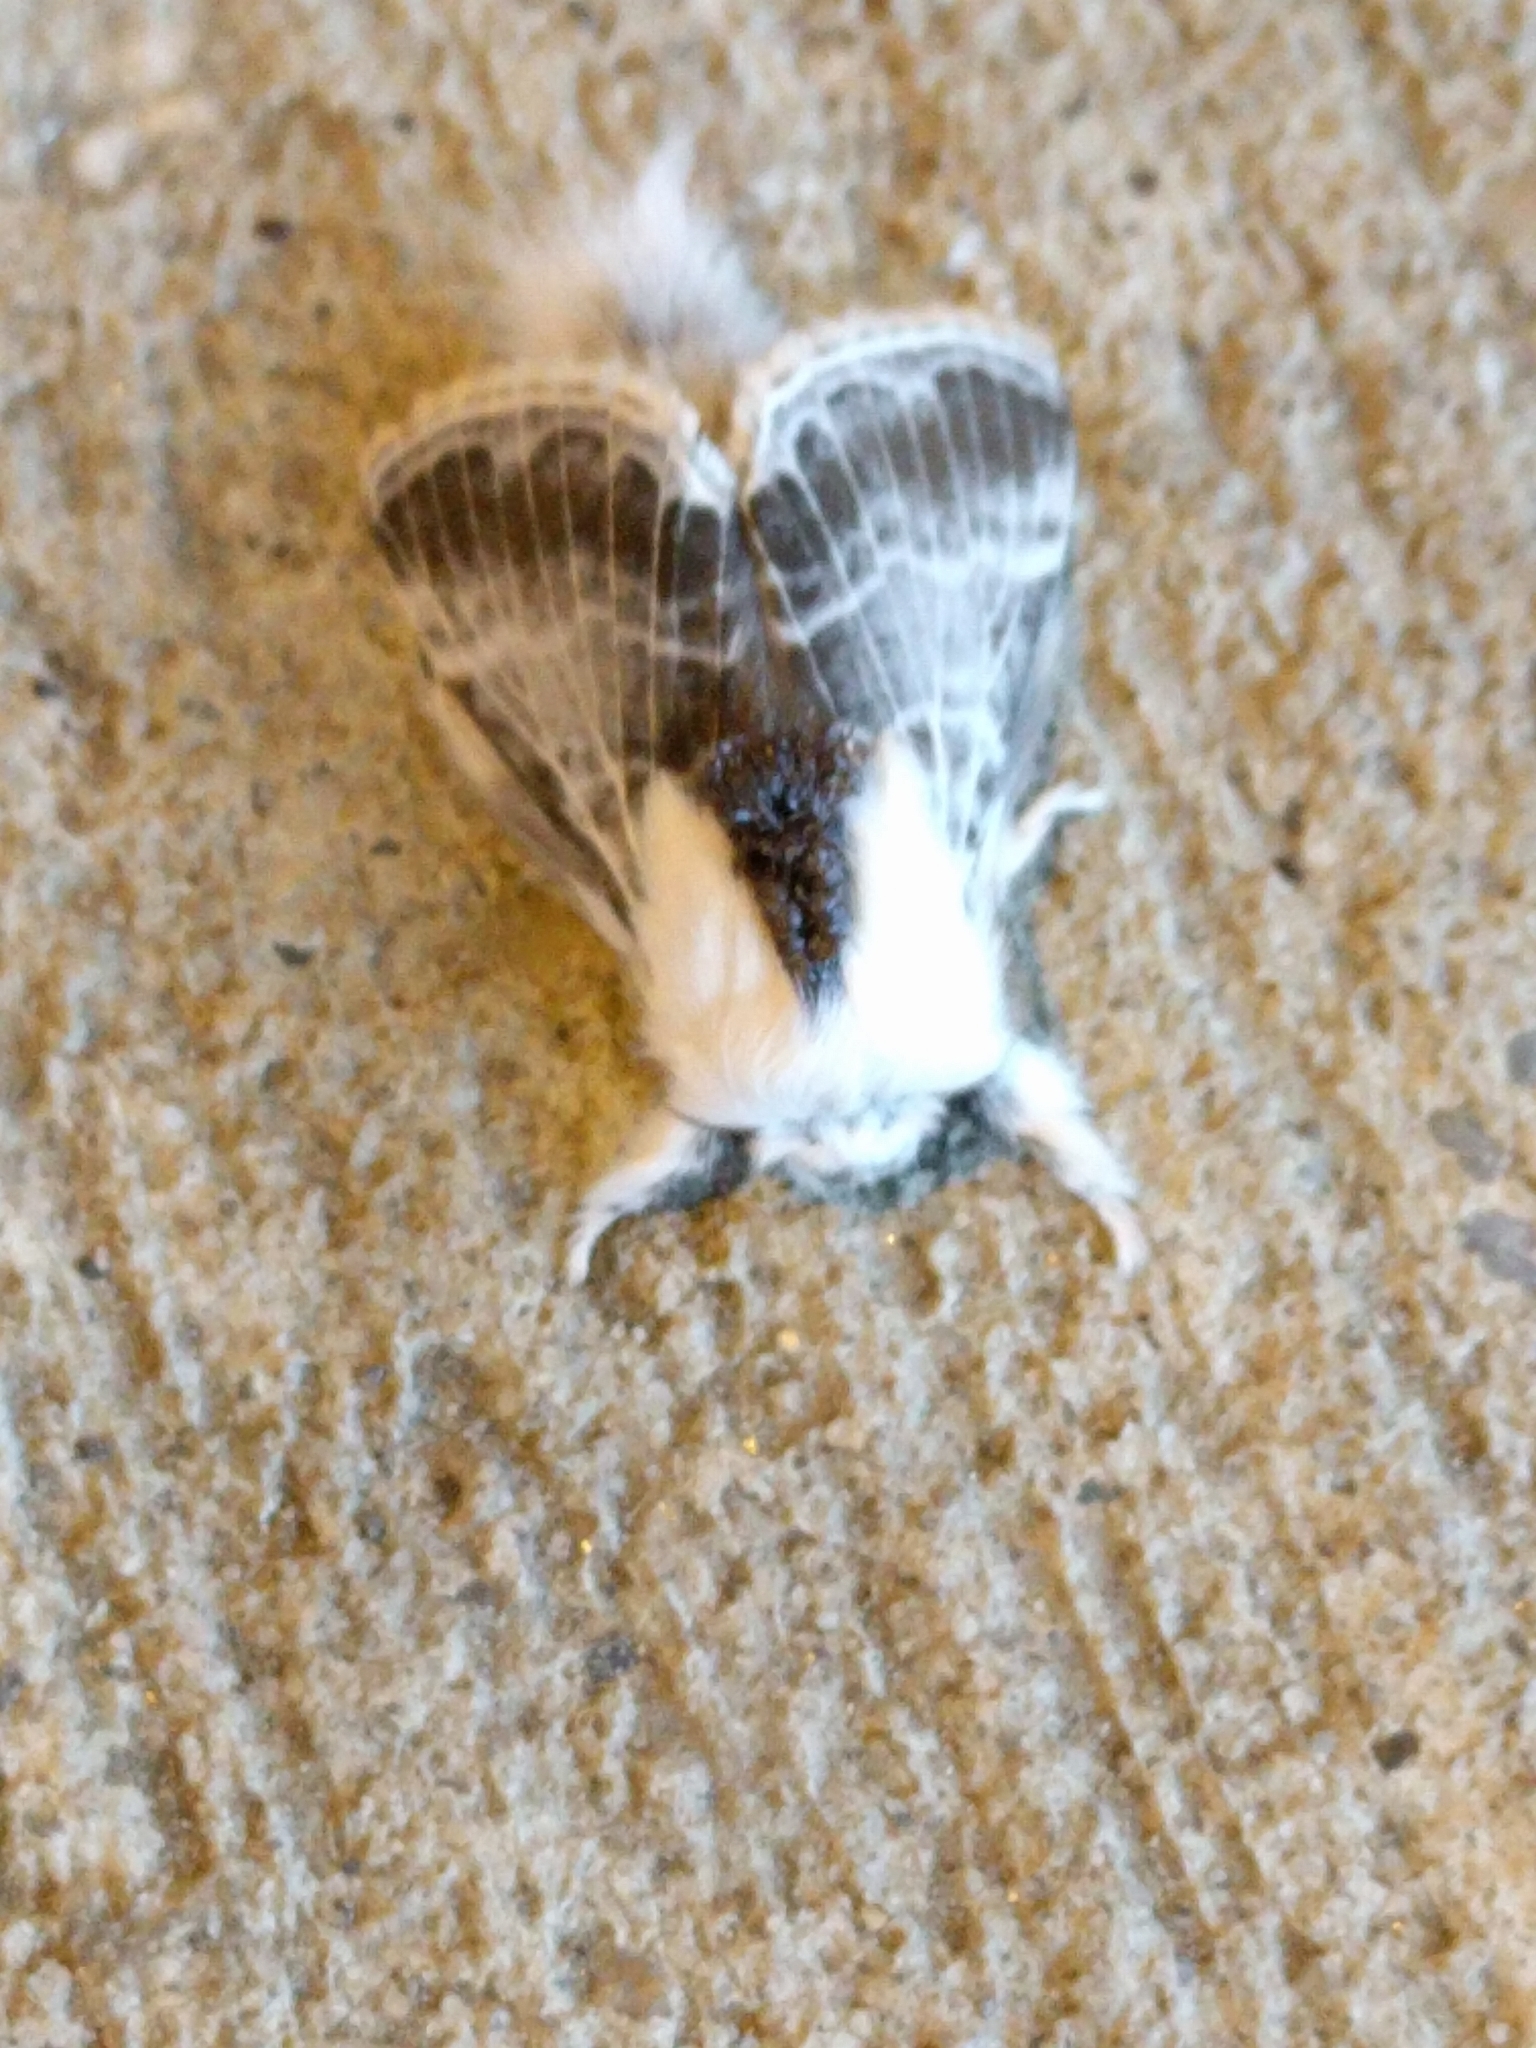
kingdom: Animalia
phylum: Arthropoda
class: Insecta
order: Lepidoptera
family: Lasiocampidae
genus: Tolype
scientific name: Tolype velleda
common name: Large tolype moth
